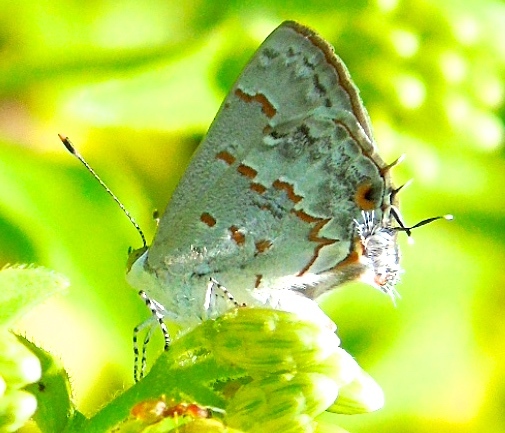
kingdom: Animalia
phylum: Arthropoda
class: Insecta
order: Lepidoptera
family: Lycaenidae
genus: Ministrymon
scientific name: Ministrymon clytie
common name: Clytie ministreak
